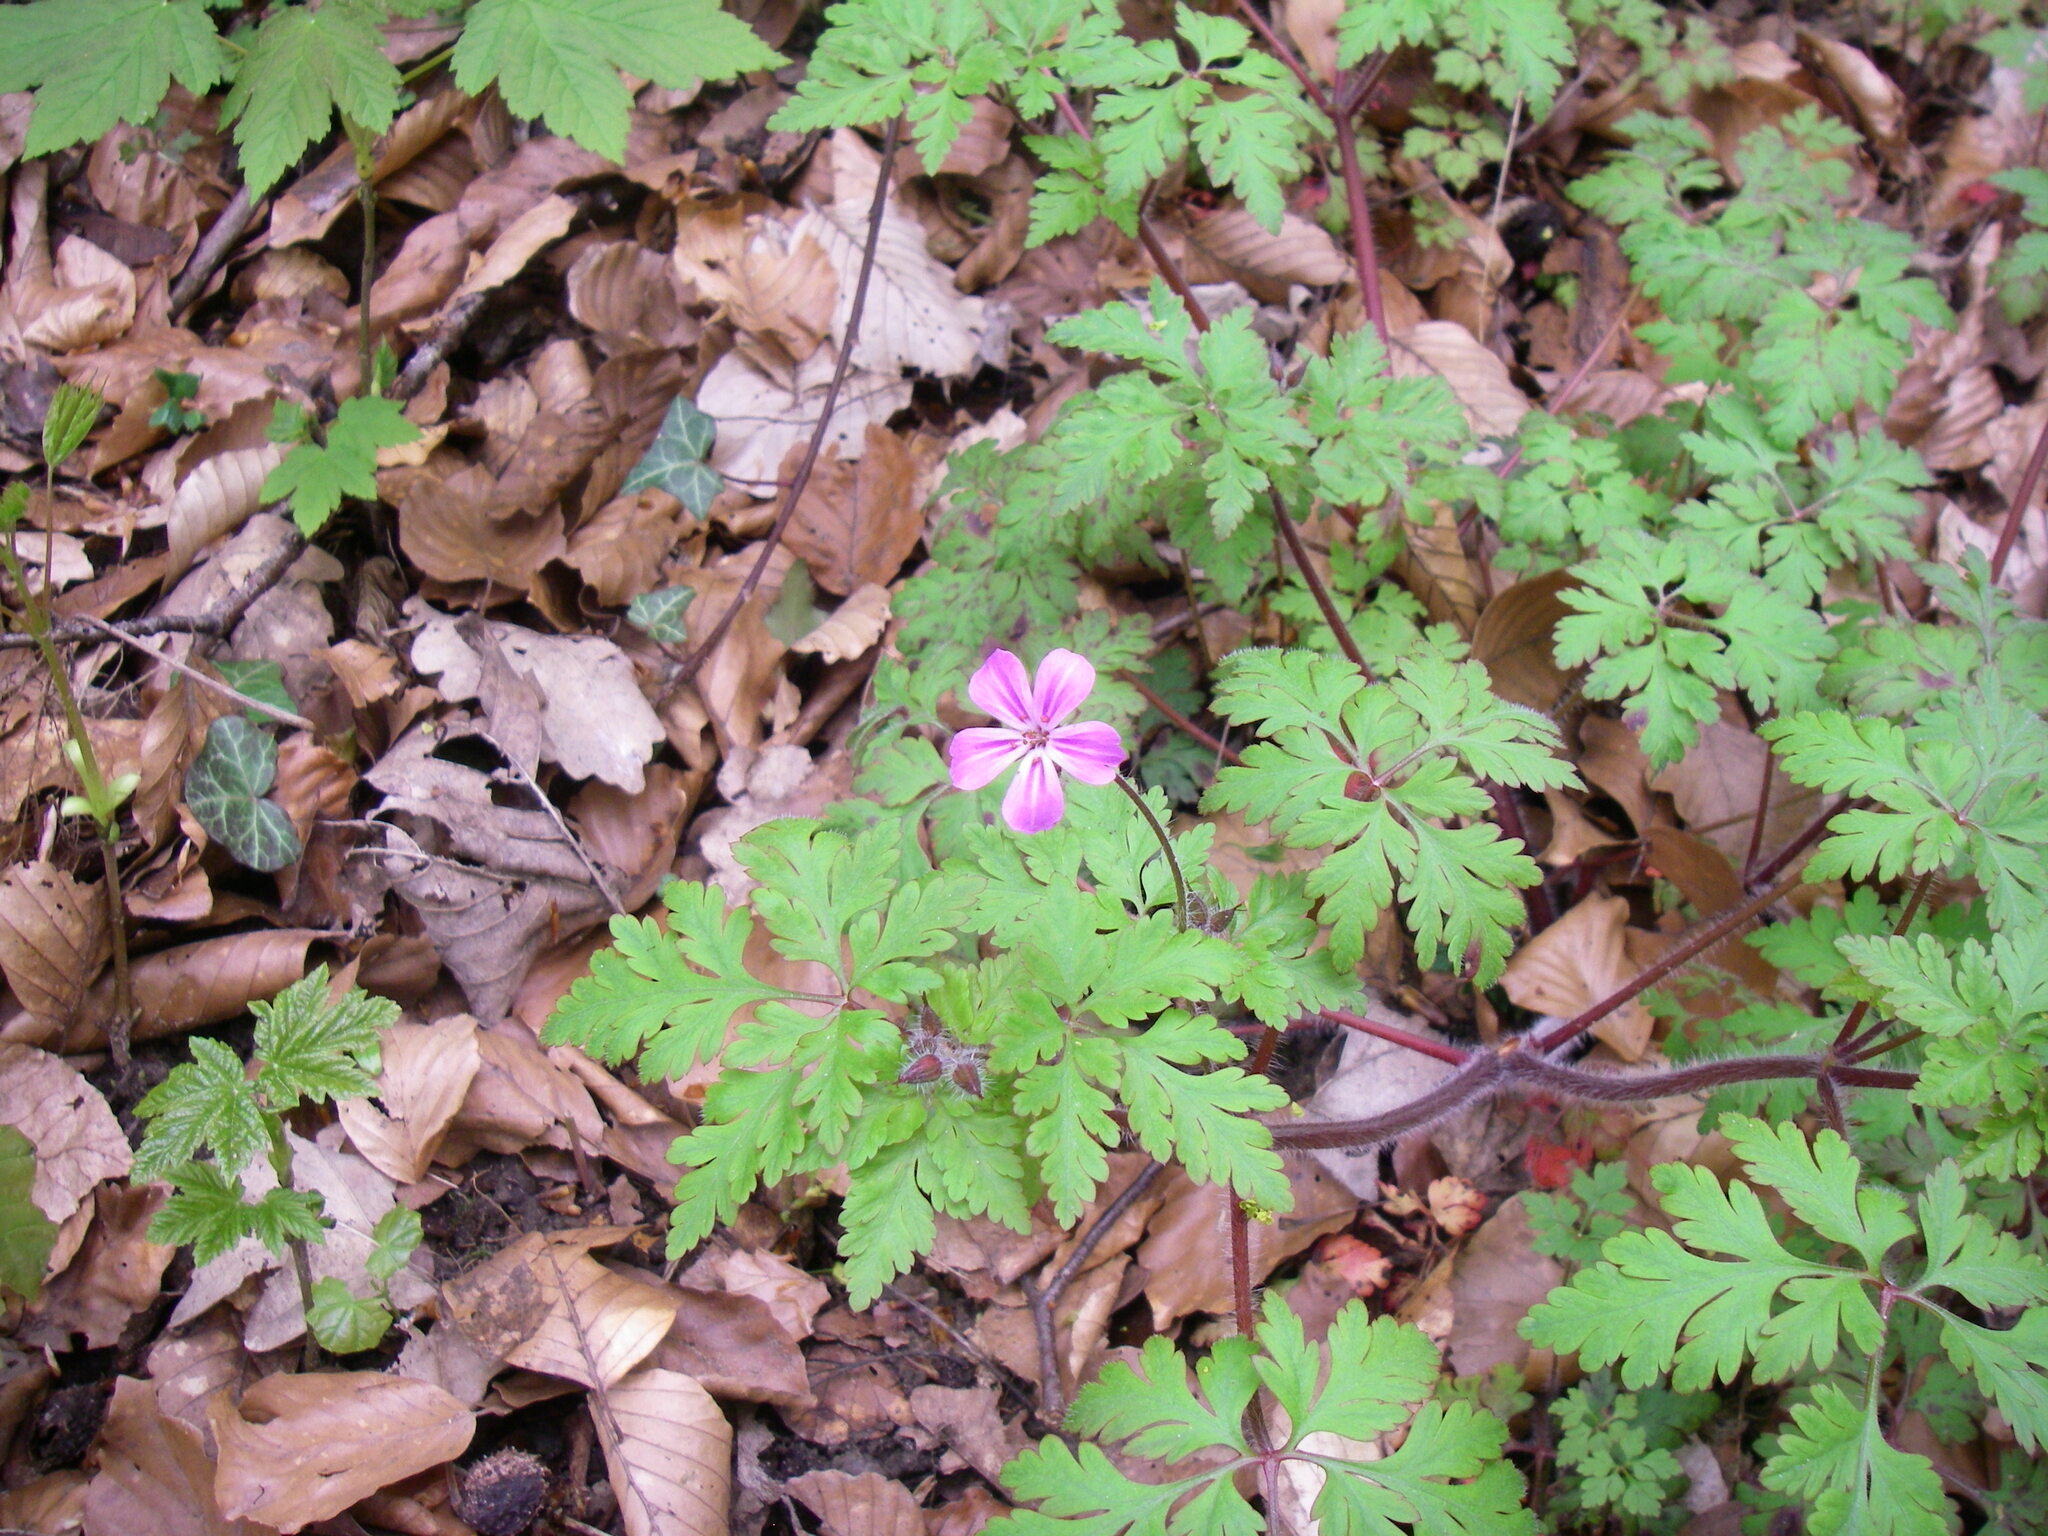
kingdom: Plantae
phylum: Tracheophyta
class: Magnoliopsida
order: Geraniales
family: Geraniaceae
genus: Geranium
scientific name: Geranium robertianum
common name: Herb-robert
